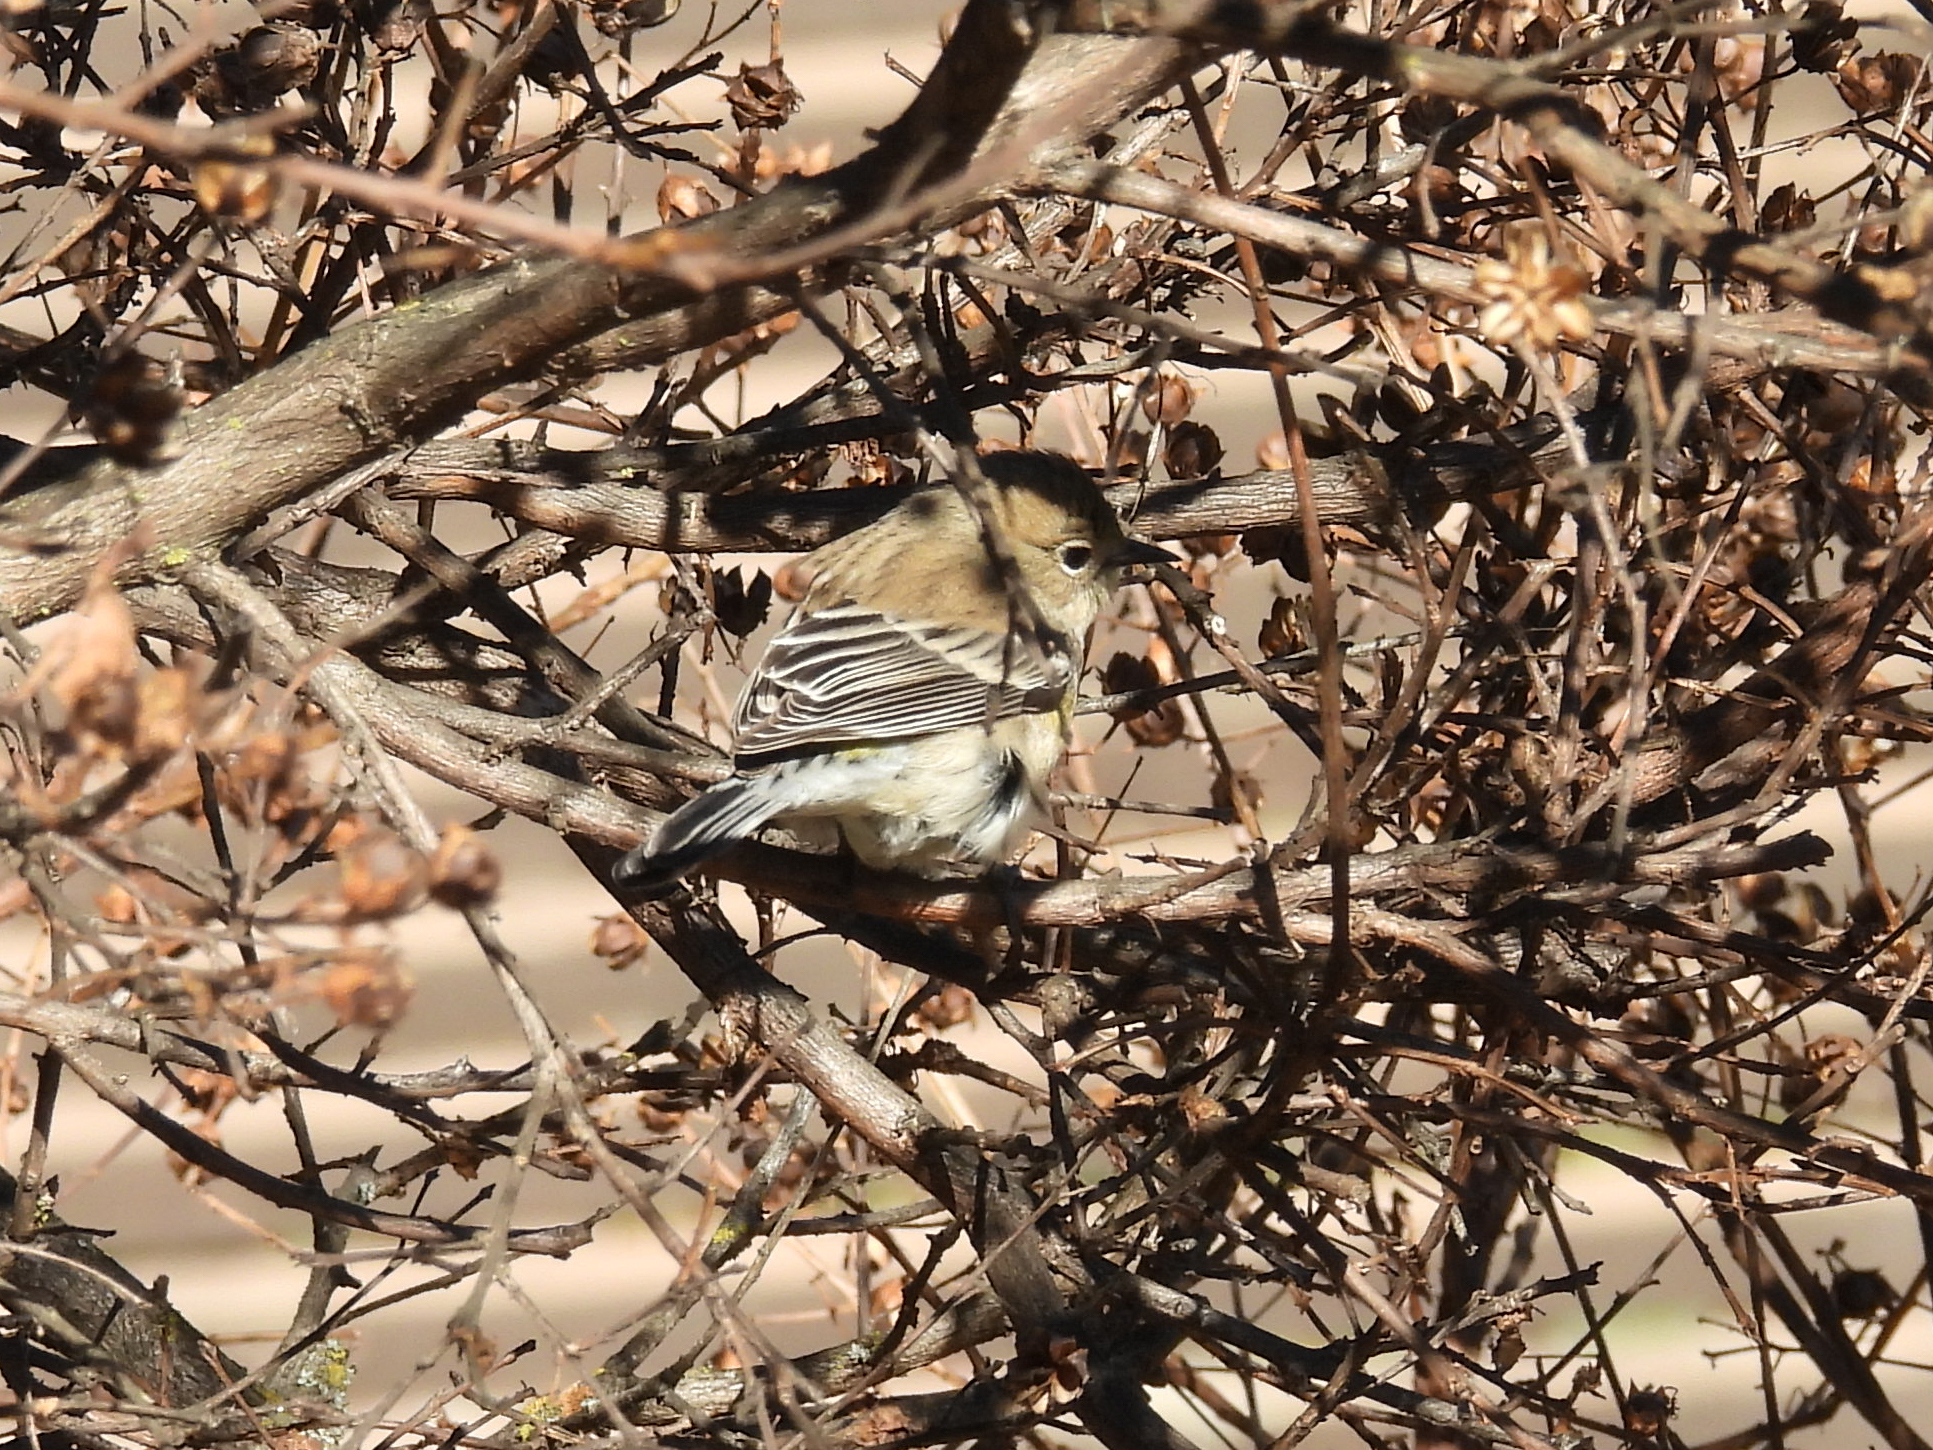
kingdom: Animalia
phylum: Chordata
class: Aves
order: Passeriformes
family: Parulidae
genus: Setophaga
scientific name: Setophaga coronata
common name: Myrtle warbler
